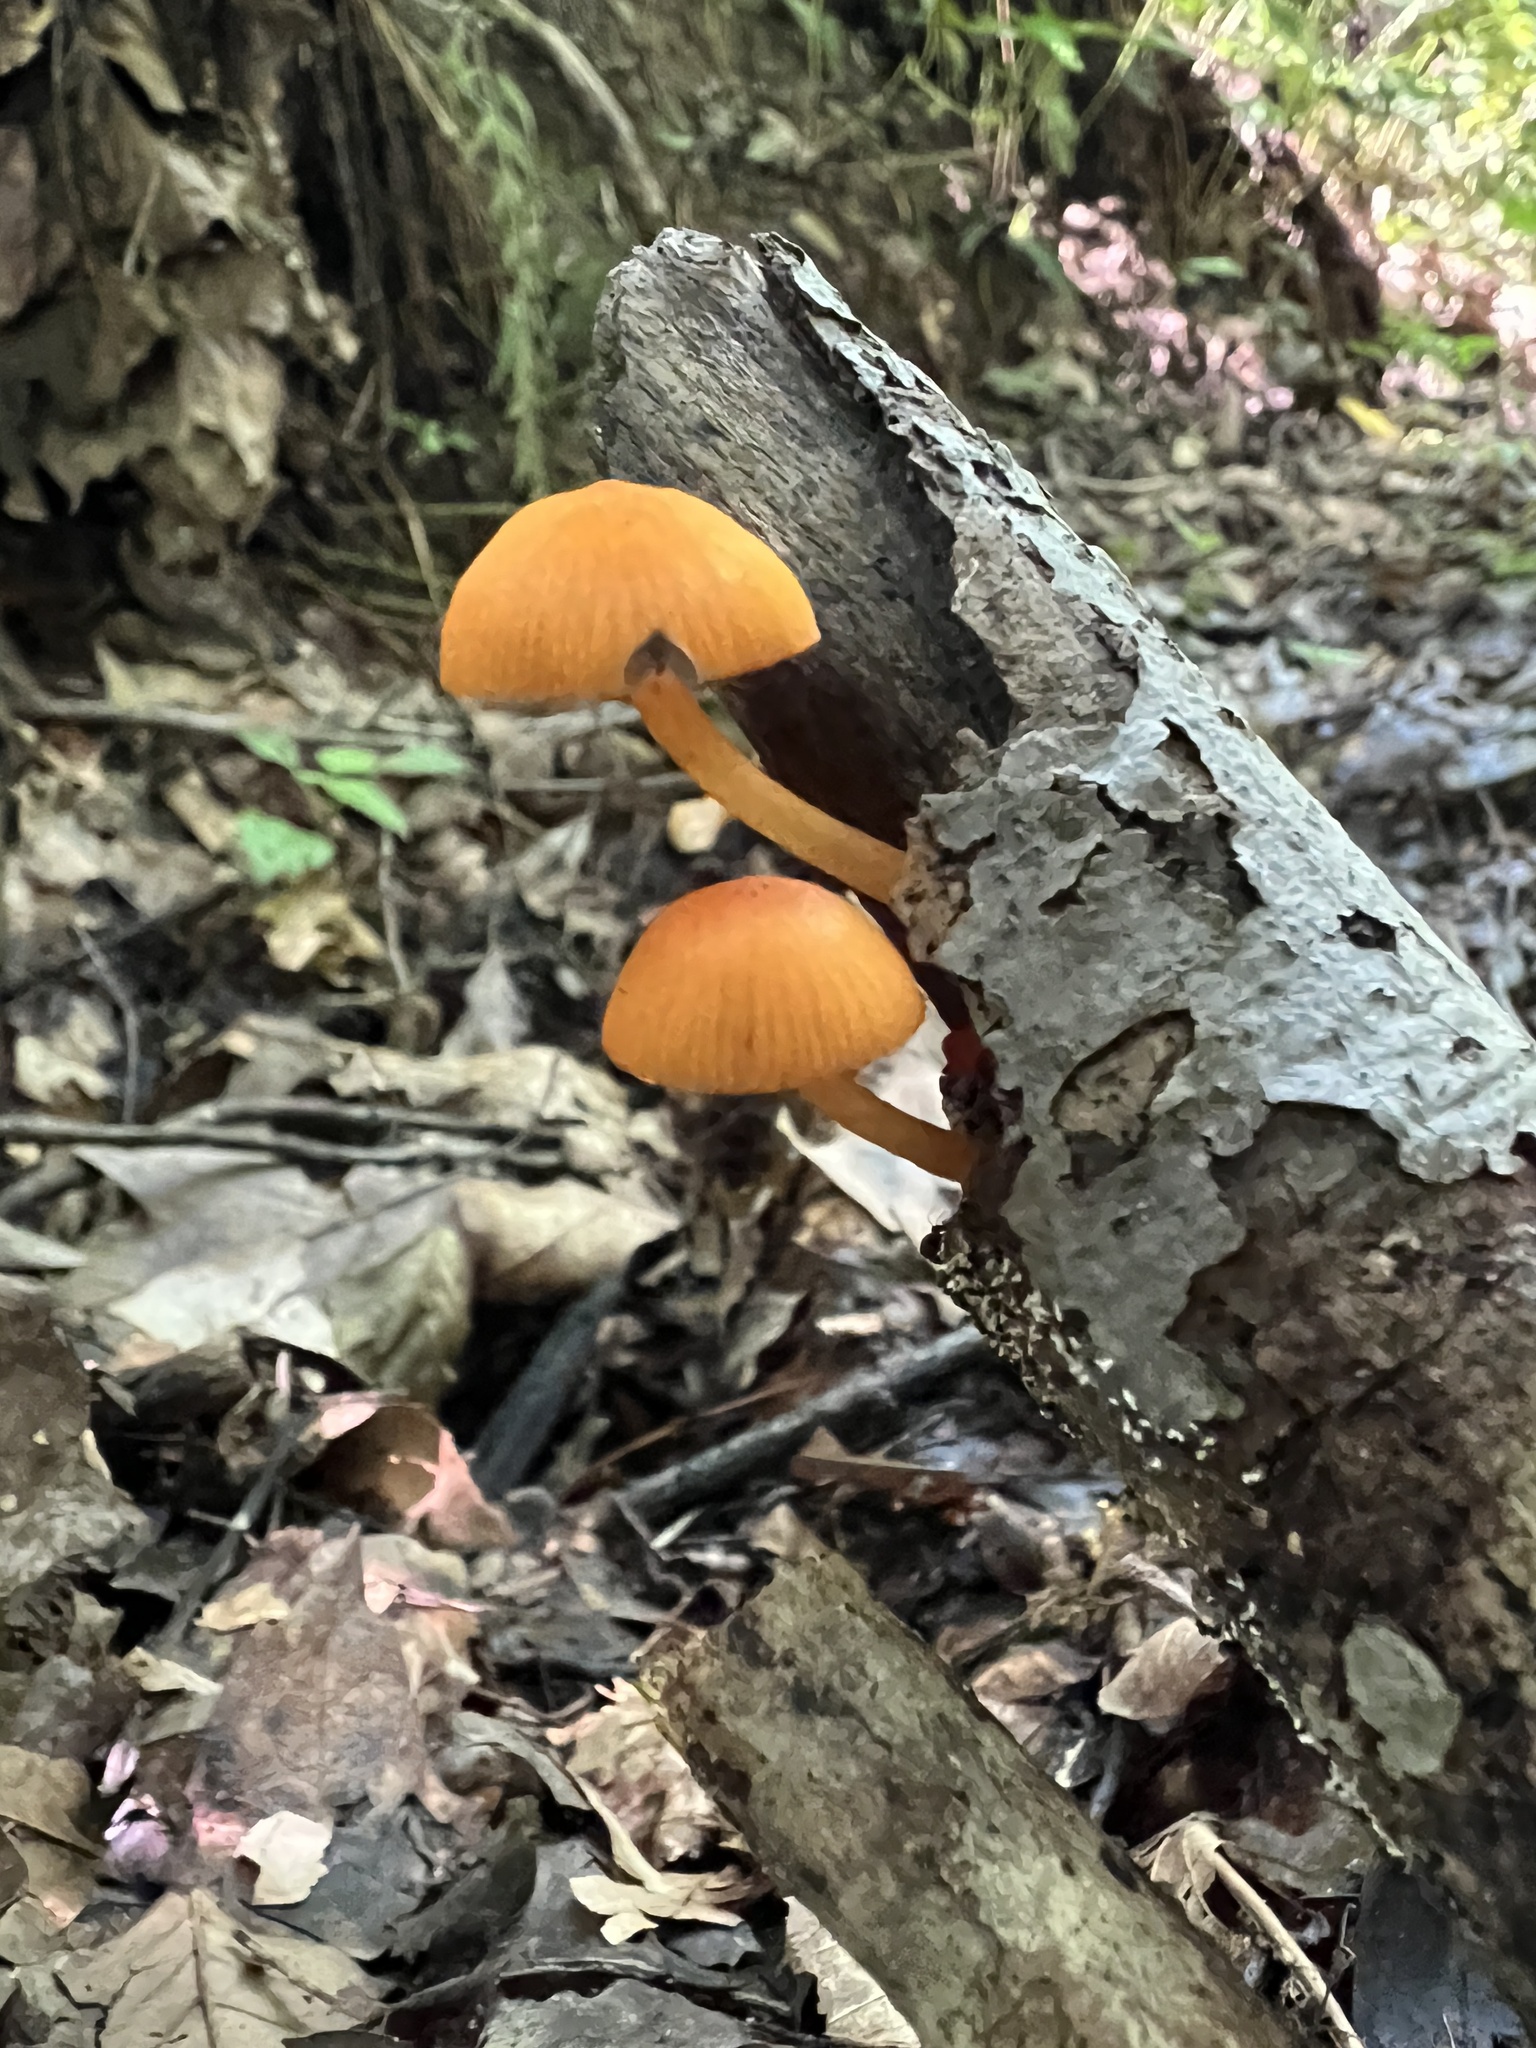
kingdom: Fungi
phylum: Basidiomycota
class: Agaricomycetes
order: Agaricales
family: Mycenaceae
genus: Mycena
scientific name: Mycena leaiana
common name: Orange mycena
